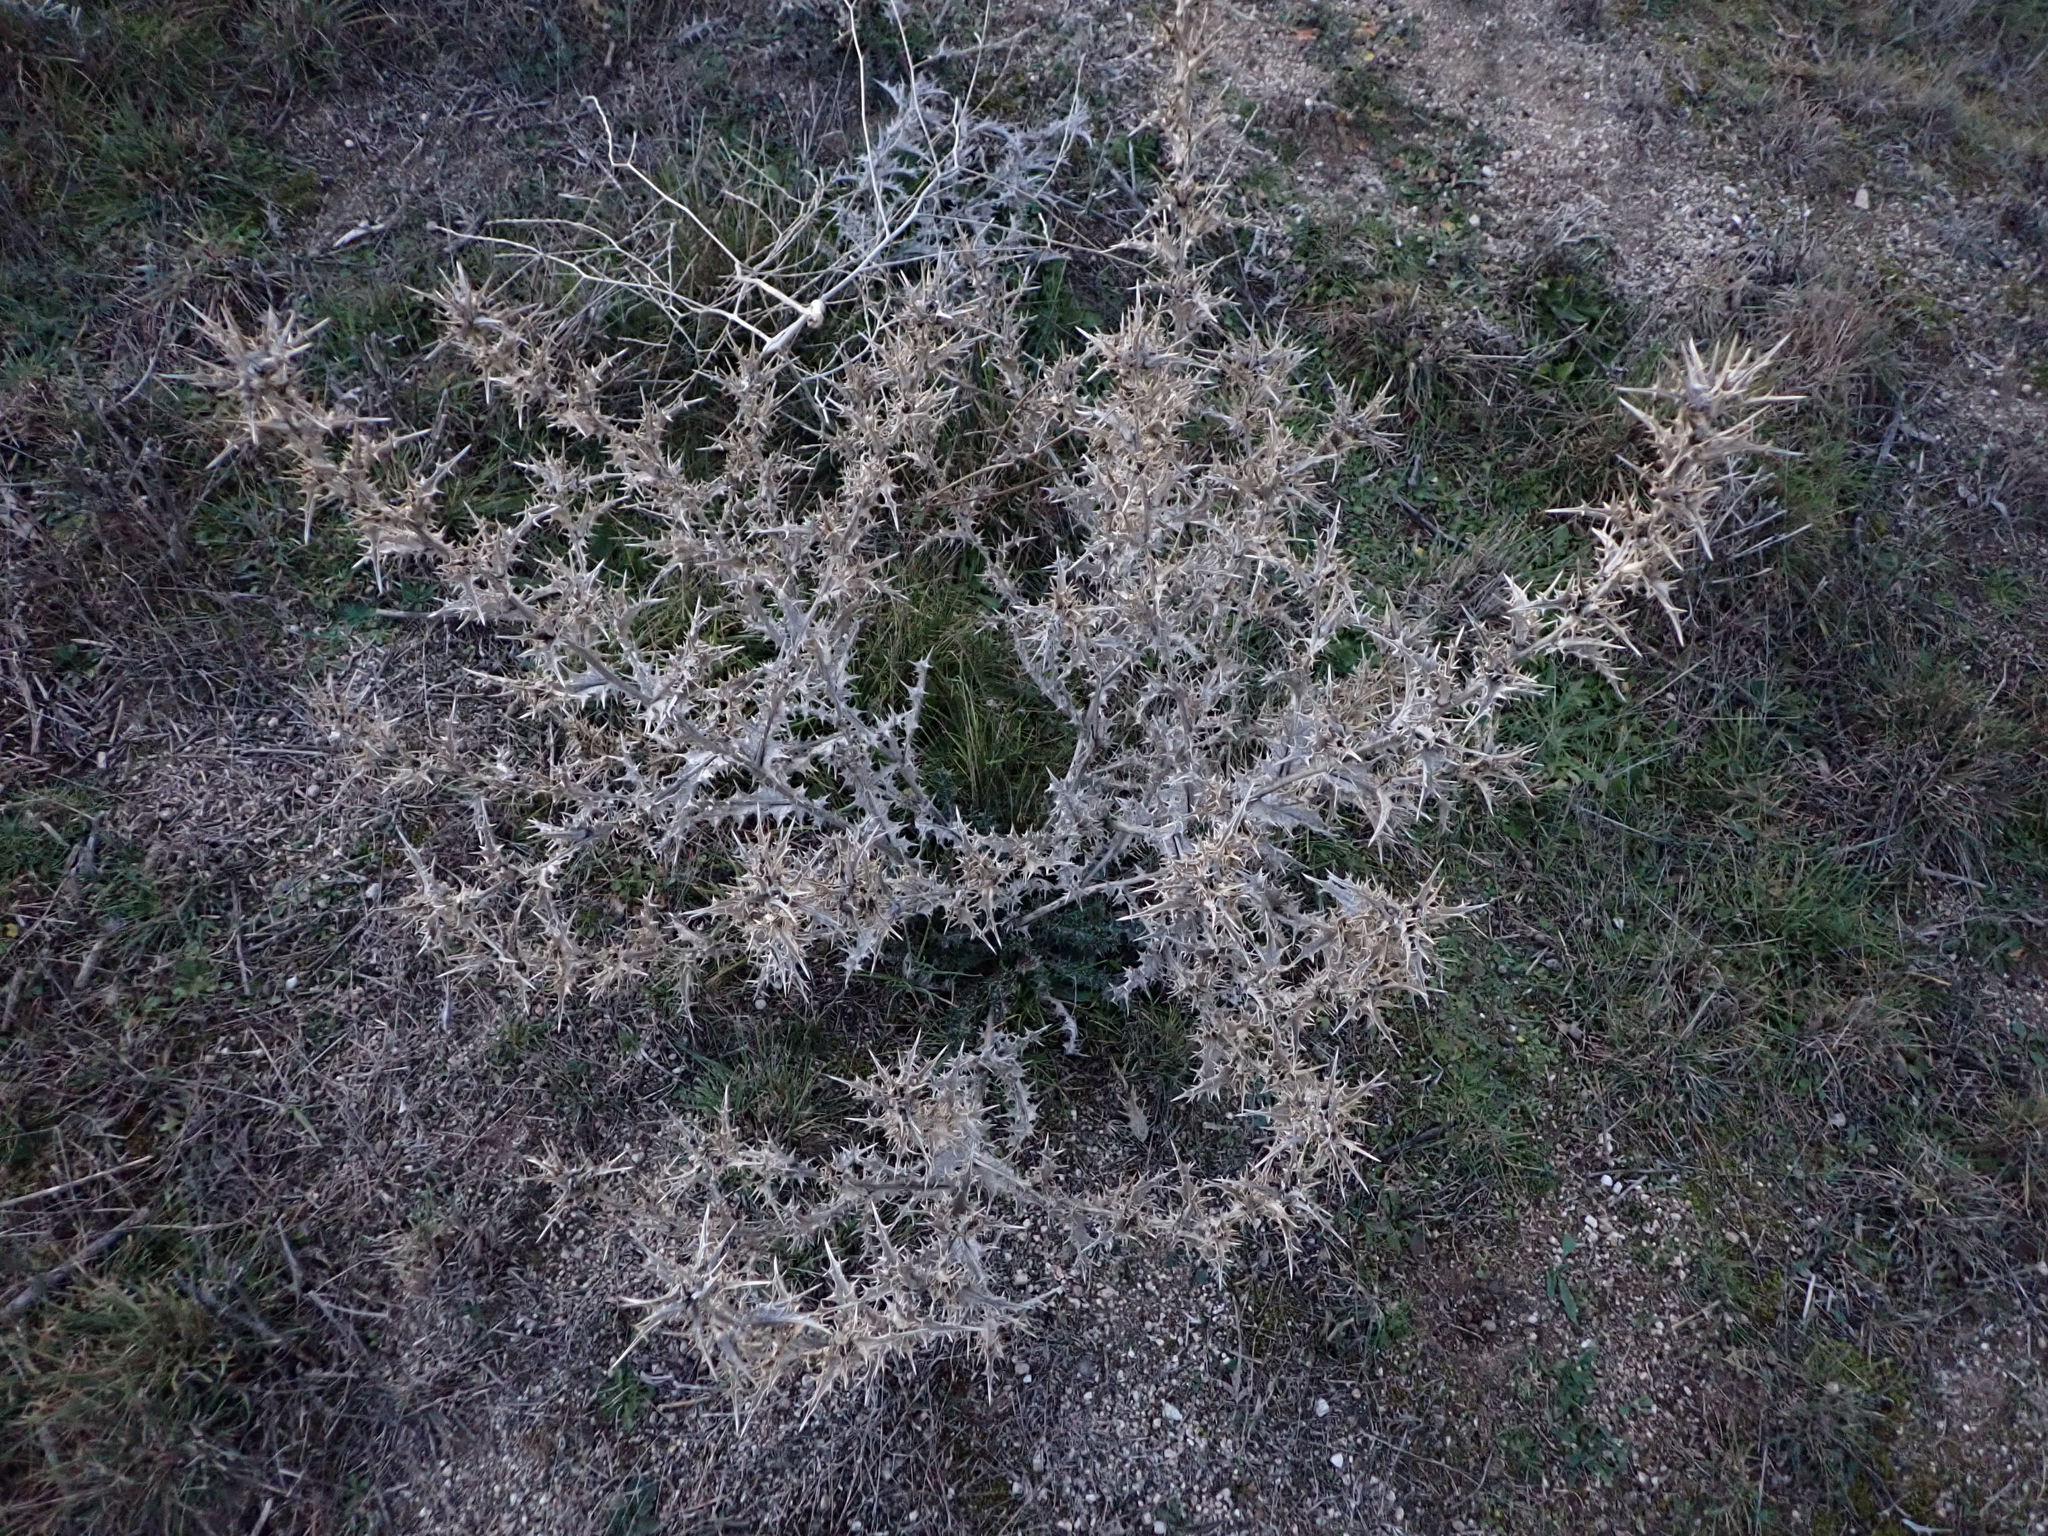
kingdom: Plantae
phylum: Tracheophyta
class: Magnoliopsida
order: Asterales
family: Asteraceae
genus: Scolymus
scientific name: Scolymus hispanicus
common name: Golden thistle
